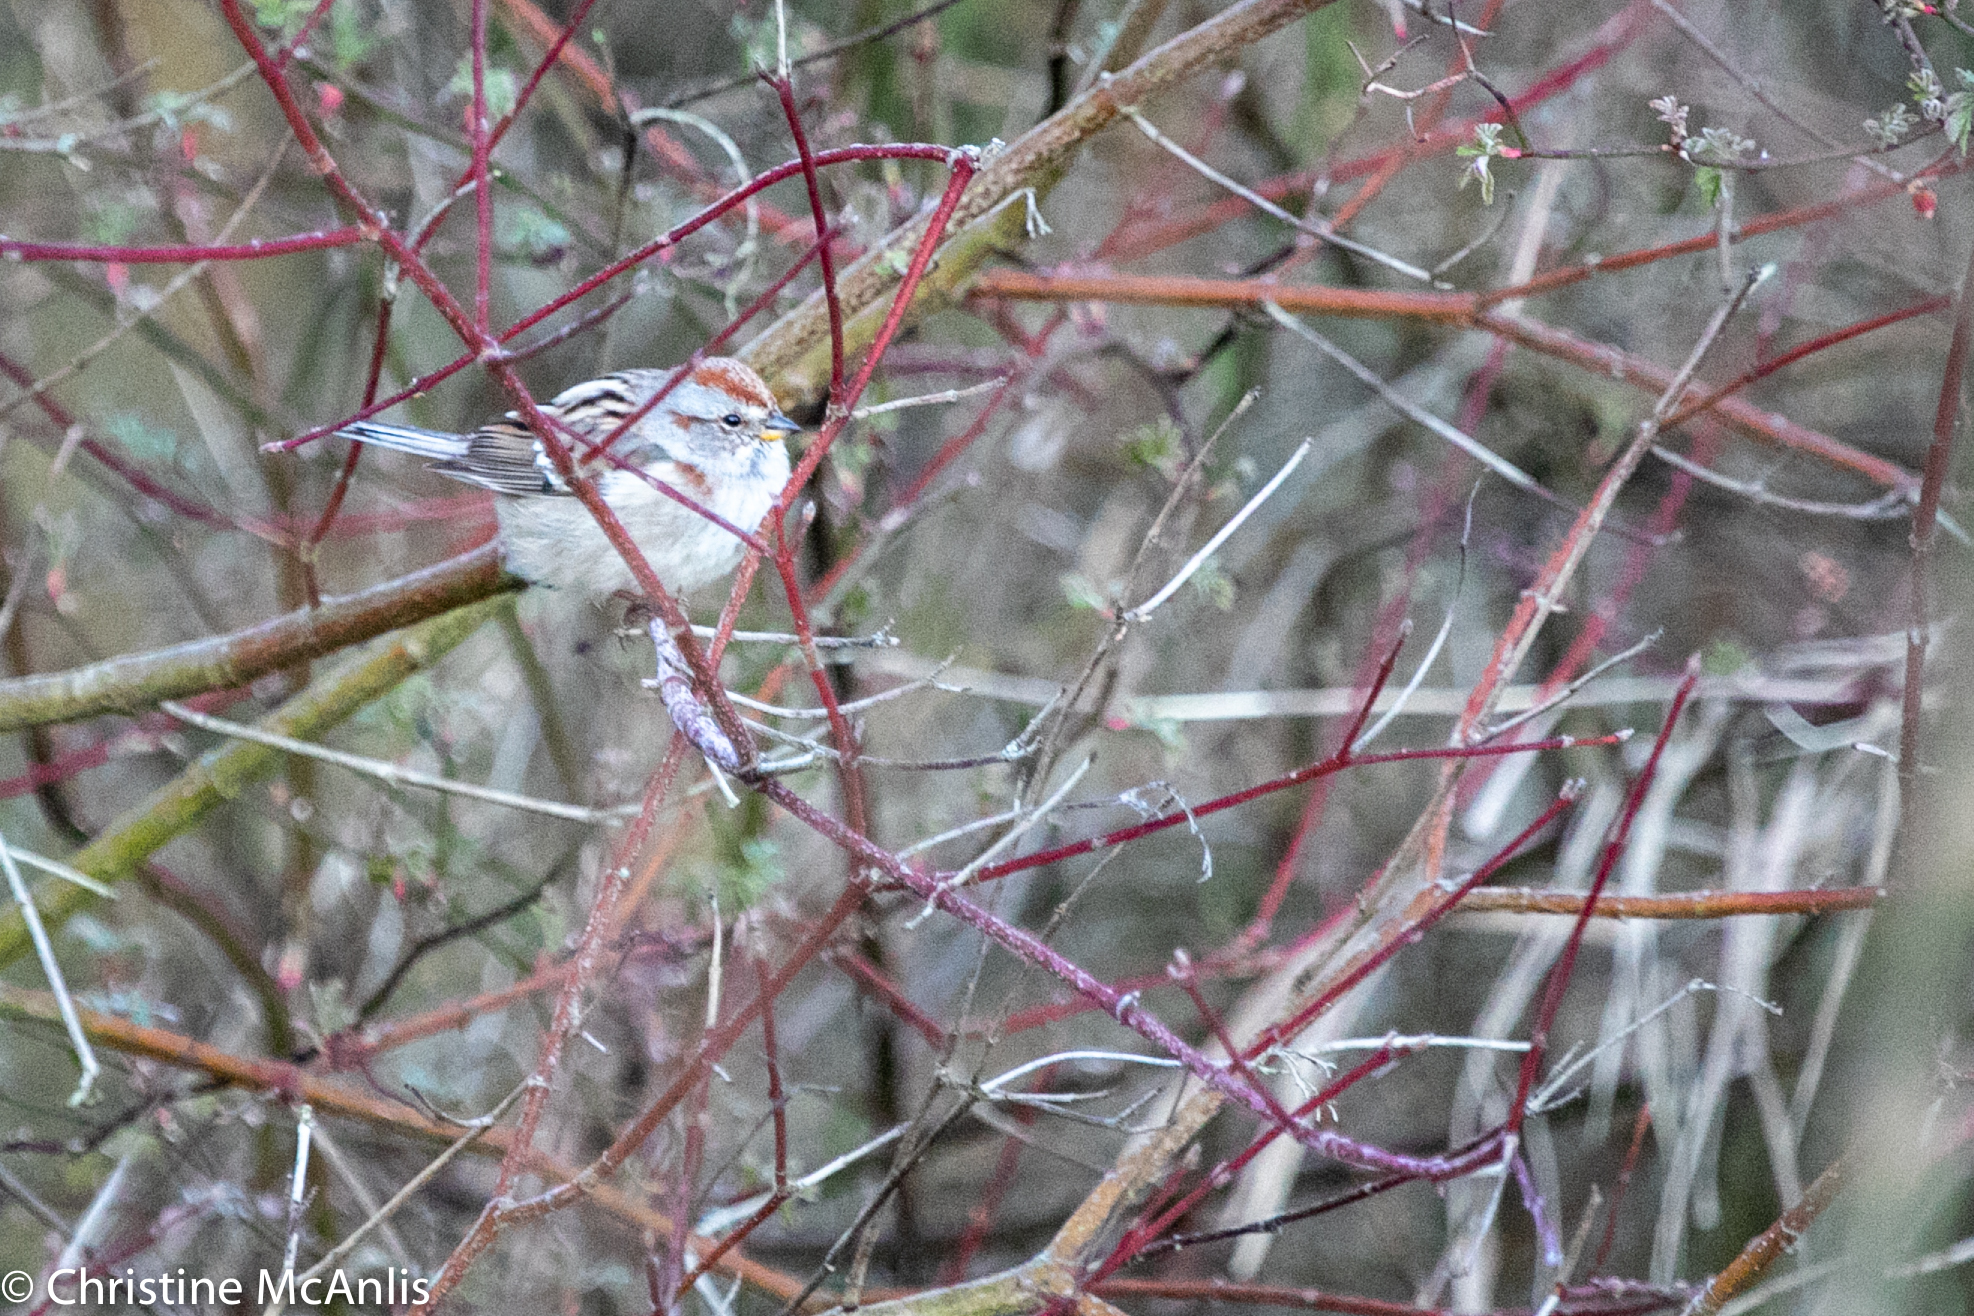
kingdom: Animalia
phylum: Chordata
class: Aves
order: Passeriformes
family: Passerellidae
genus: Spizelloides
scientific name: Spizelloides arborea
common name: American tree sparrow
